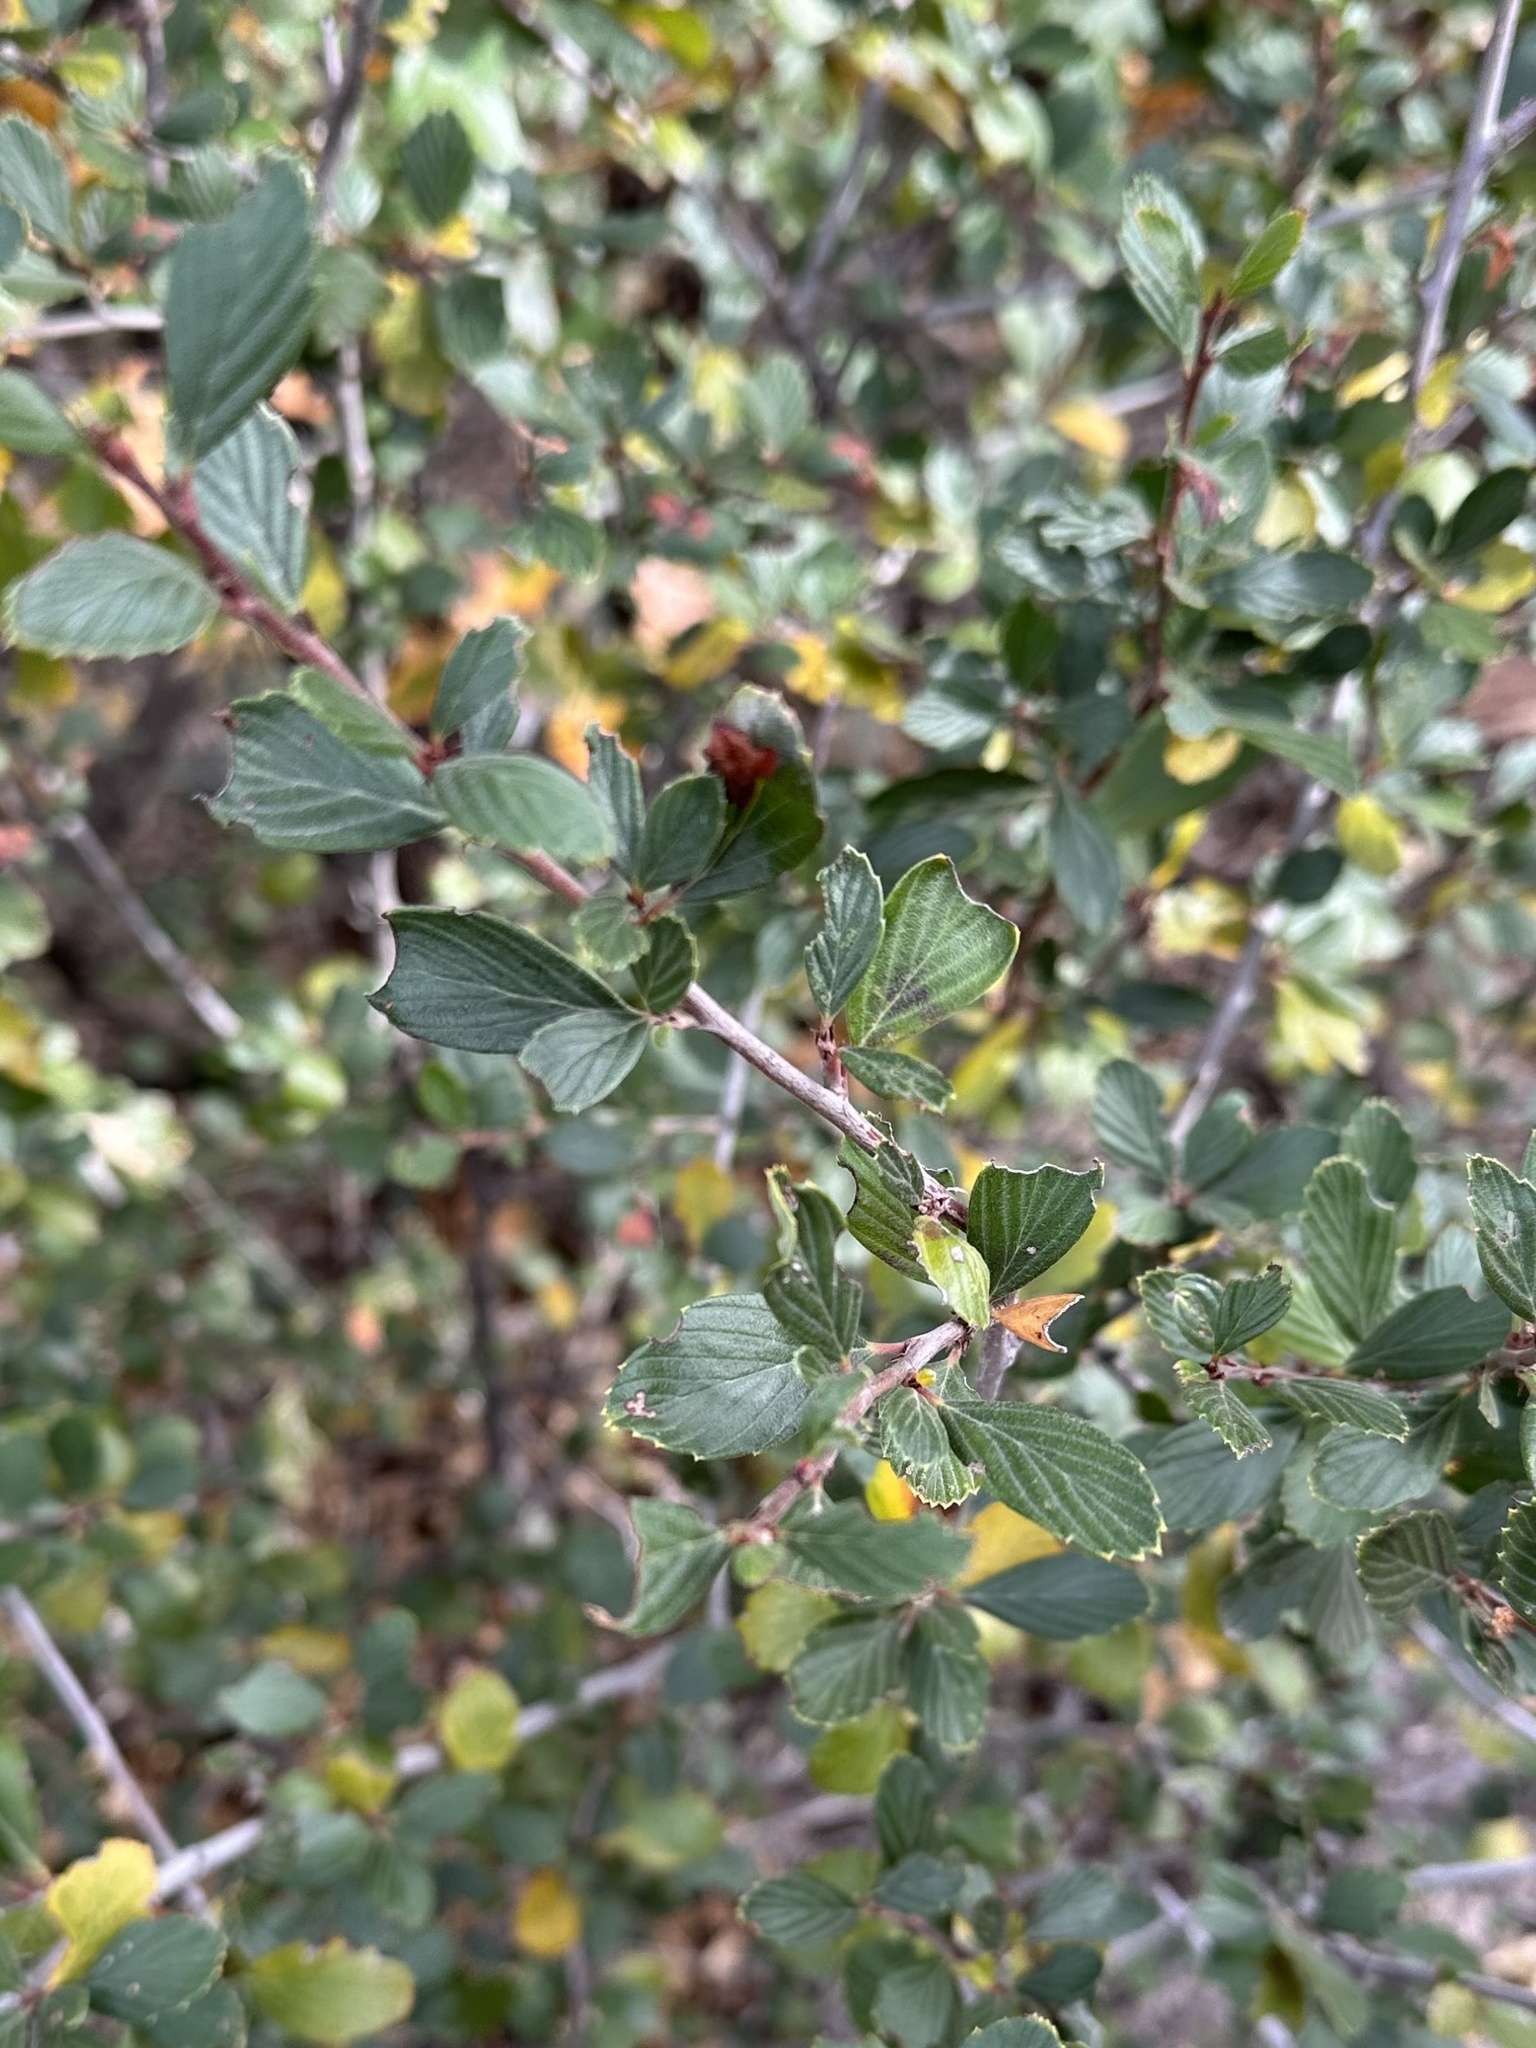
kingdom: Plantae
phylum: Tracheophyta
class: Magnoliopsida
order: Rosales
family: Rosaceae
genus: Cercocarpus
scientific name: Cercocarpus montanus
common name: Alder-leaf cercocarpus
